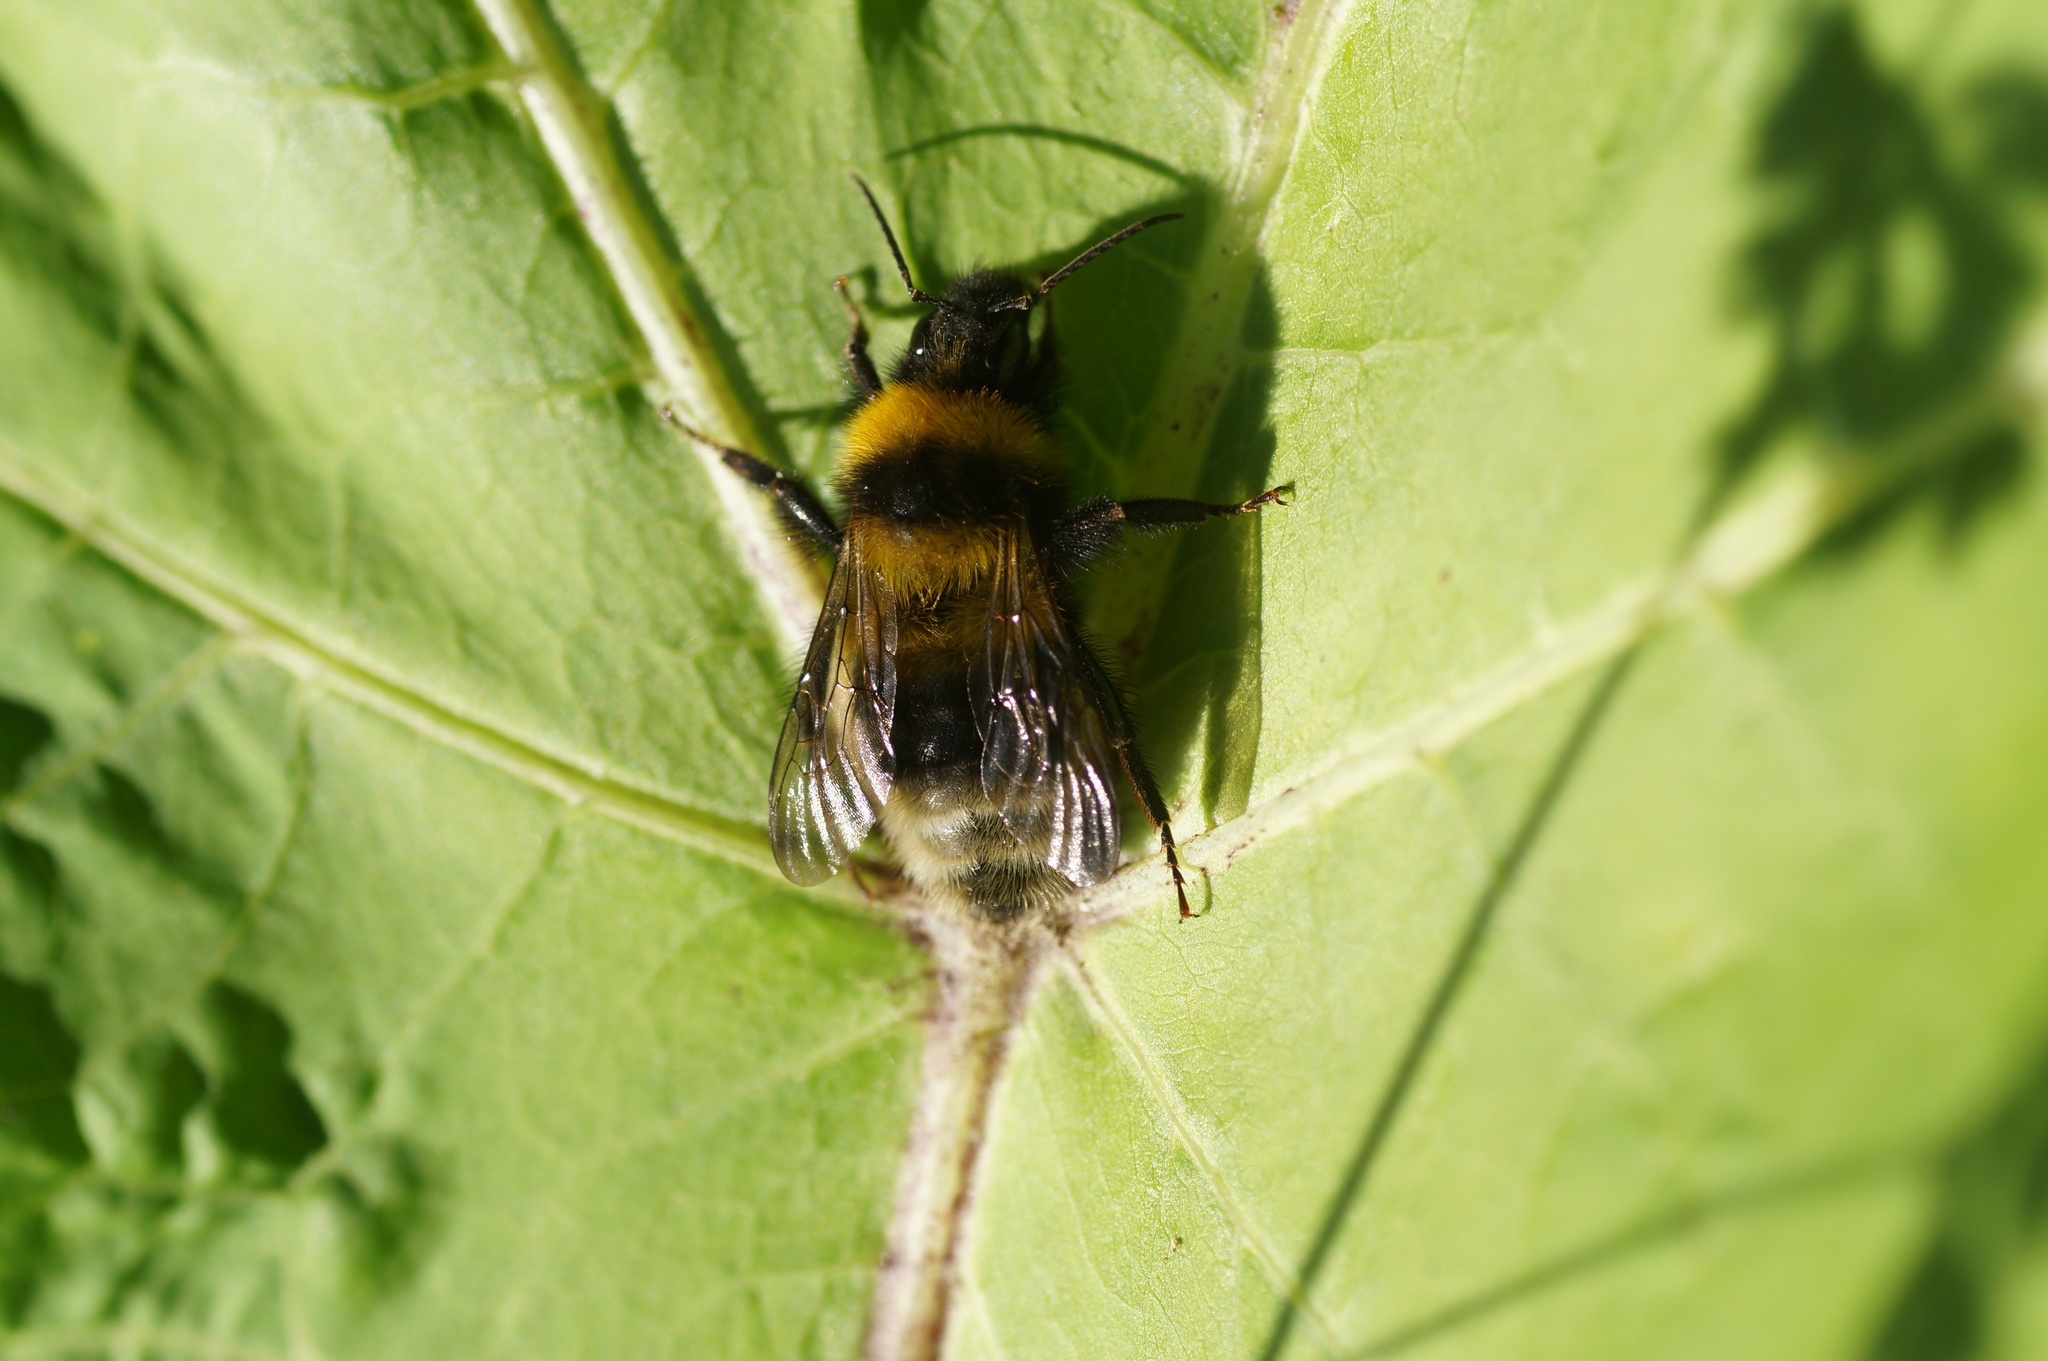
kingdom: Animalia
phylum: Arthropoda
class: Insecta
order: Hymenoptera
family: Apidae
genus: Bombus
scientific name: Bombus hortorum
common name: Garden bumblebee
